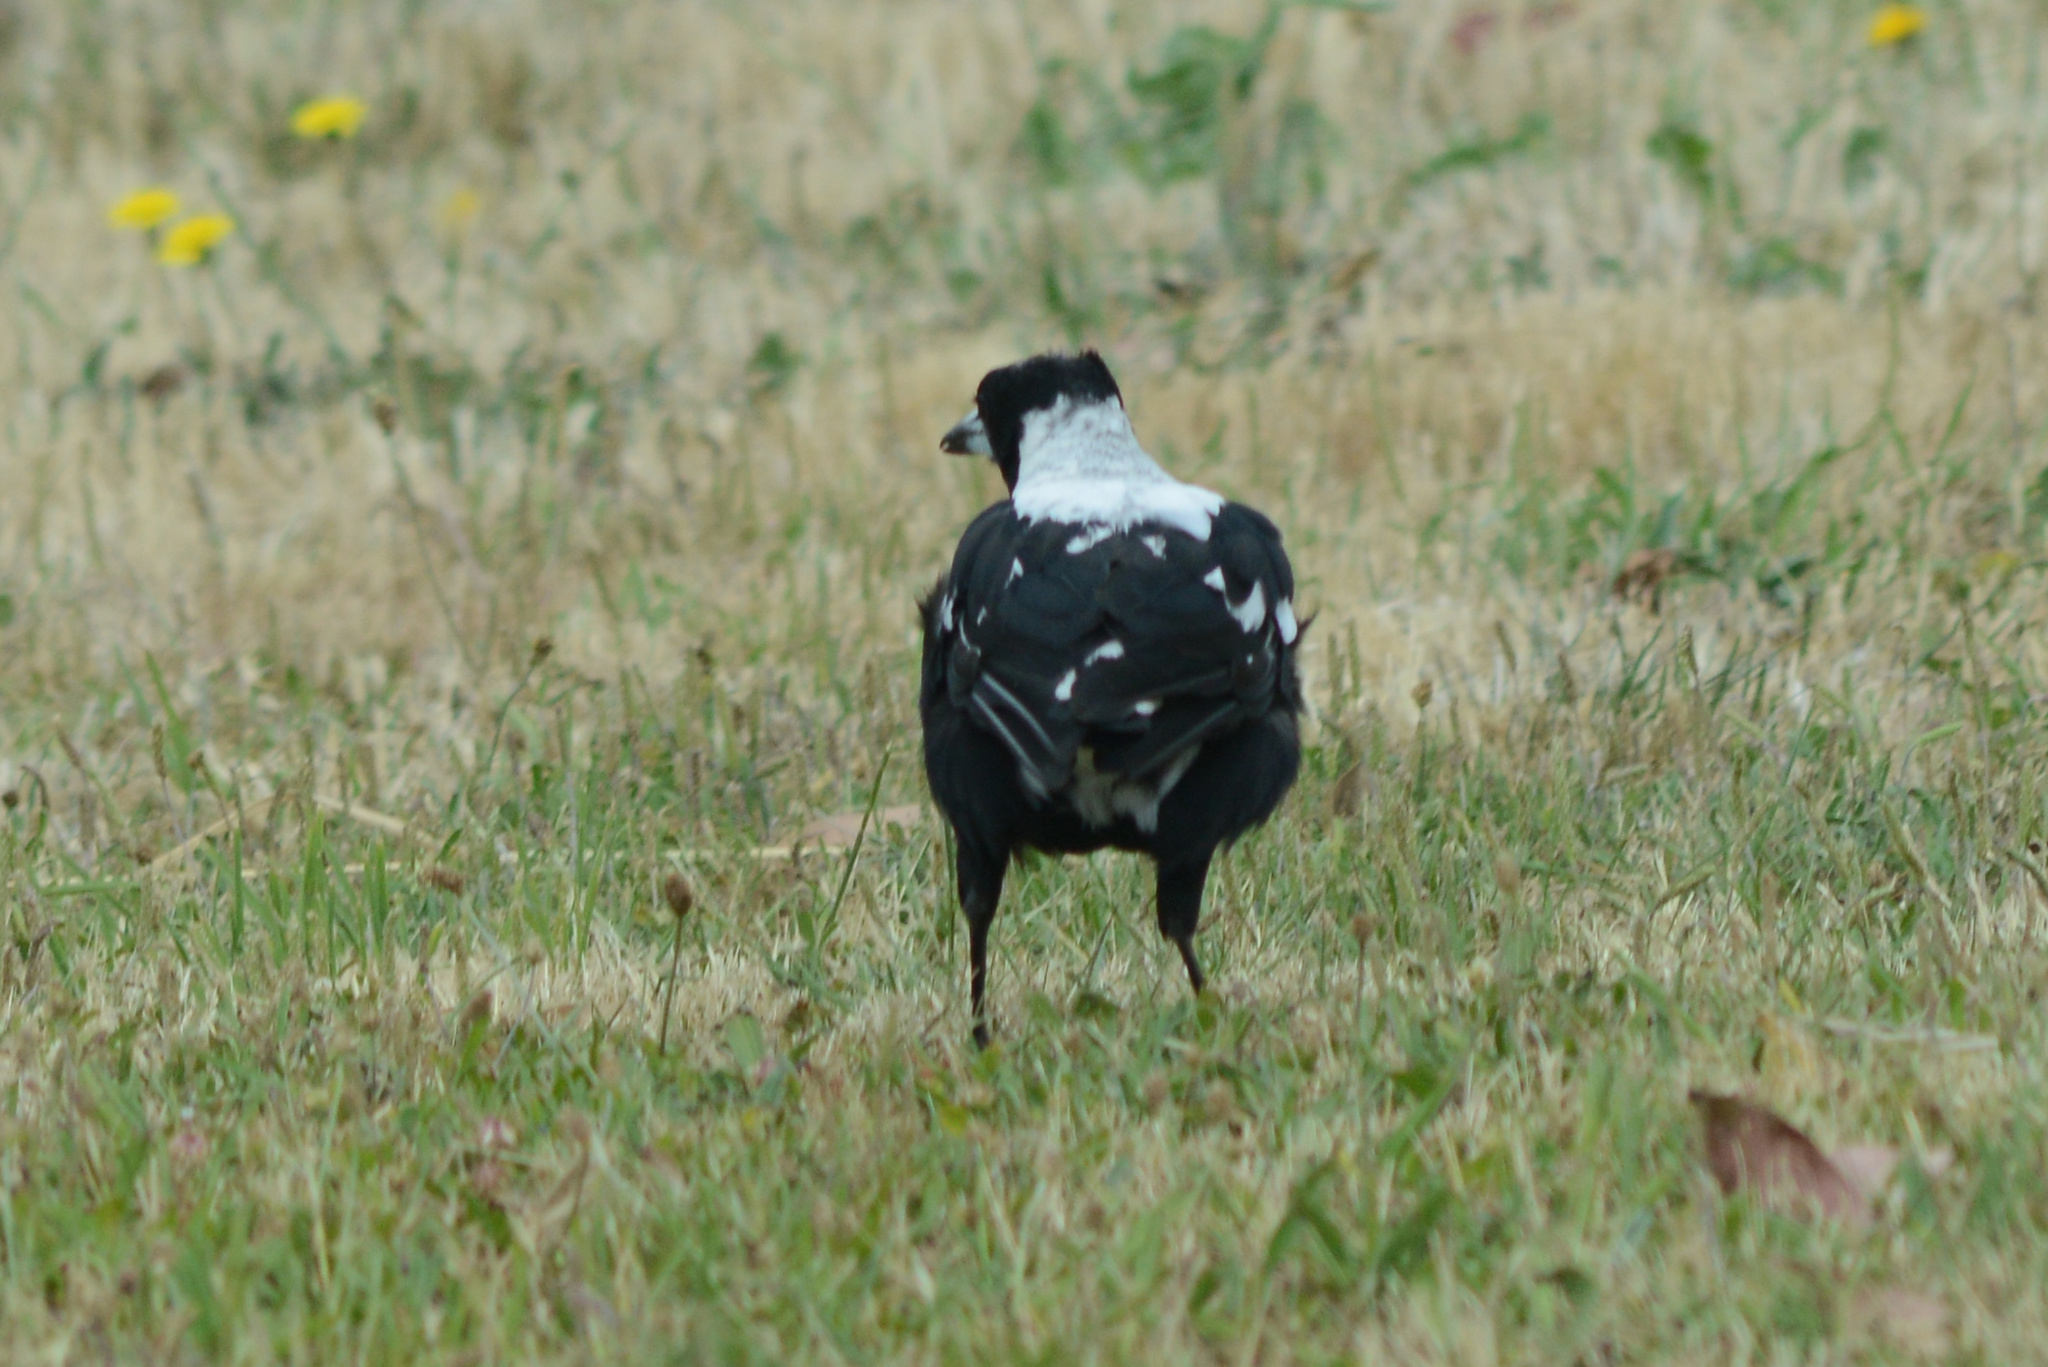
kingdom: Animalia
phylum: Chordata
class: Aves
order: Passeriformes
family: Cracticidae
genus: Gymnorhina
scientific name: Gymnorhina tibicen
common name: Australian magpie
